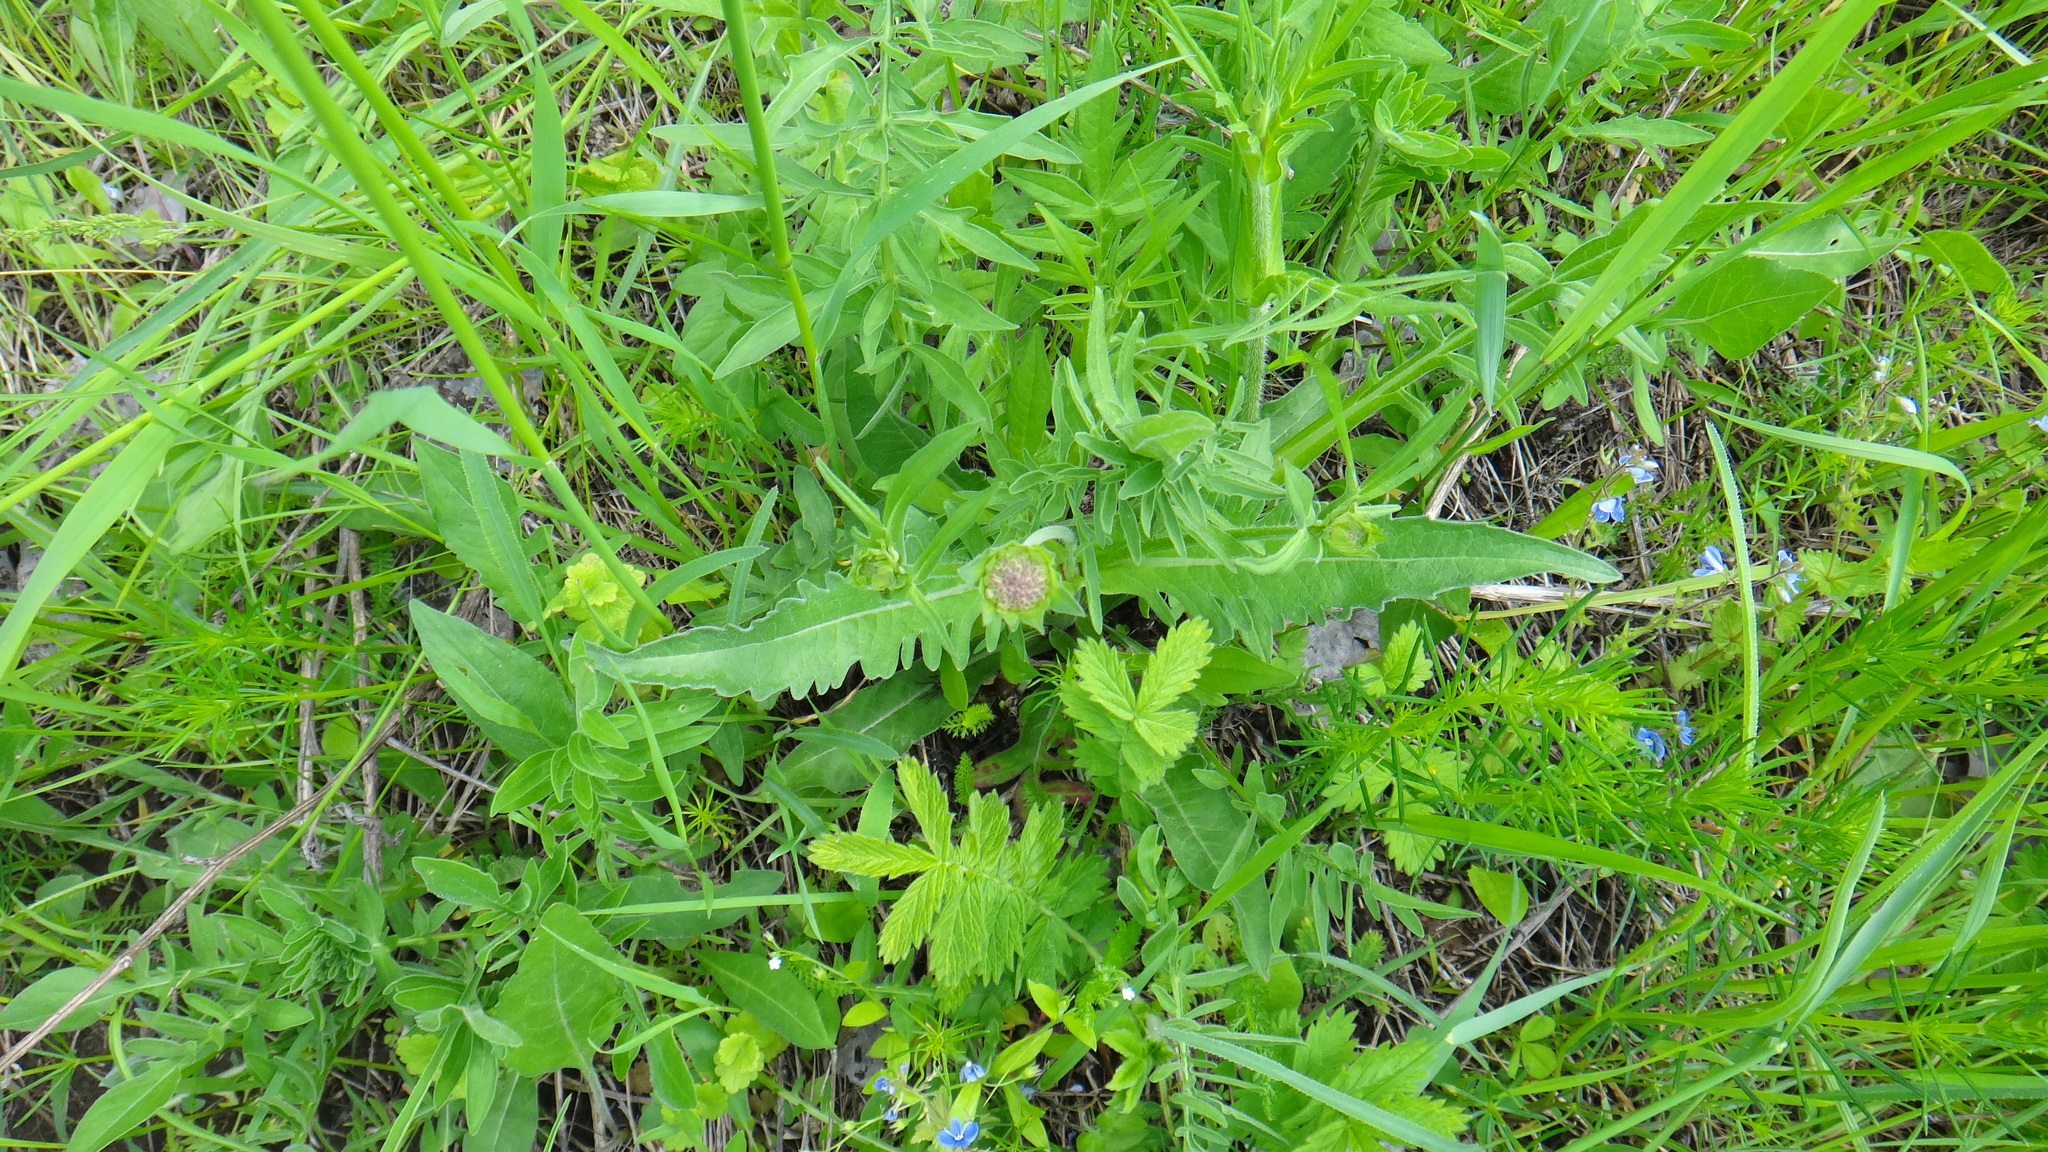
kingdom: Plantae
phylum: Tracheophyta
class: Magnoliopsida
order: Dipsacales
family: Caprifoliaceae
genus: Knautia
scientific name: Knautia arvensis
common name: Field scabiosa
